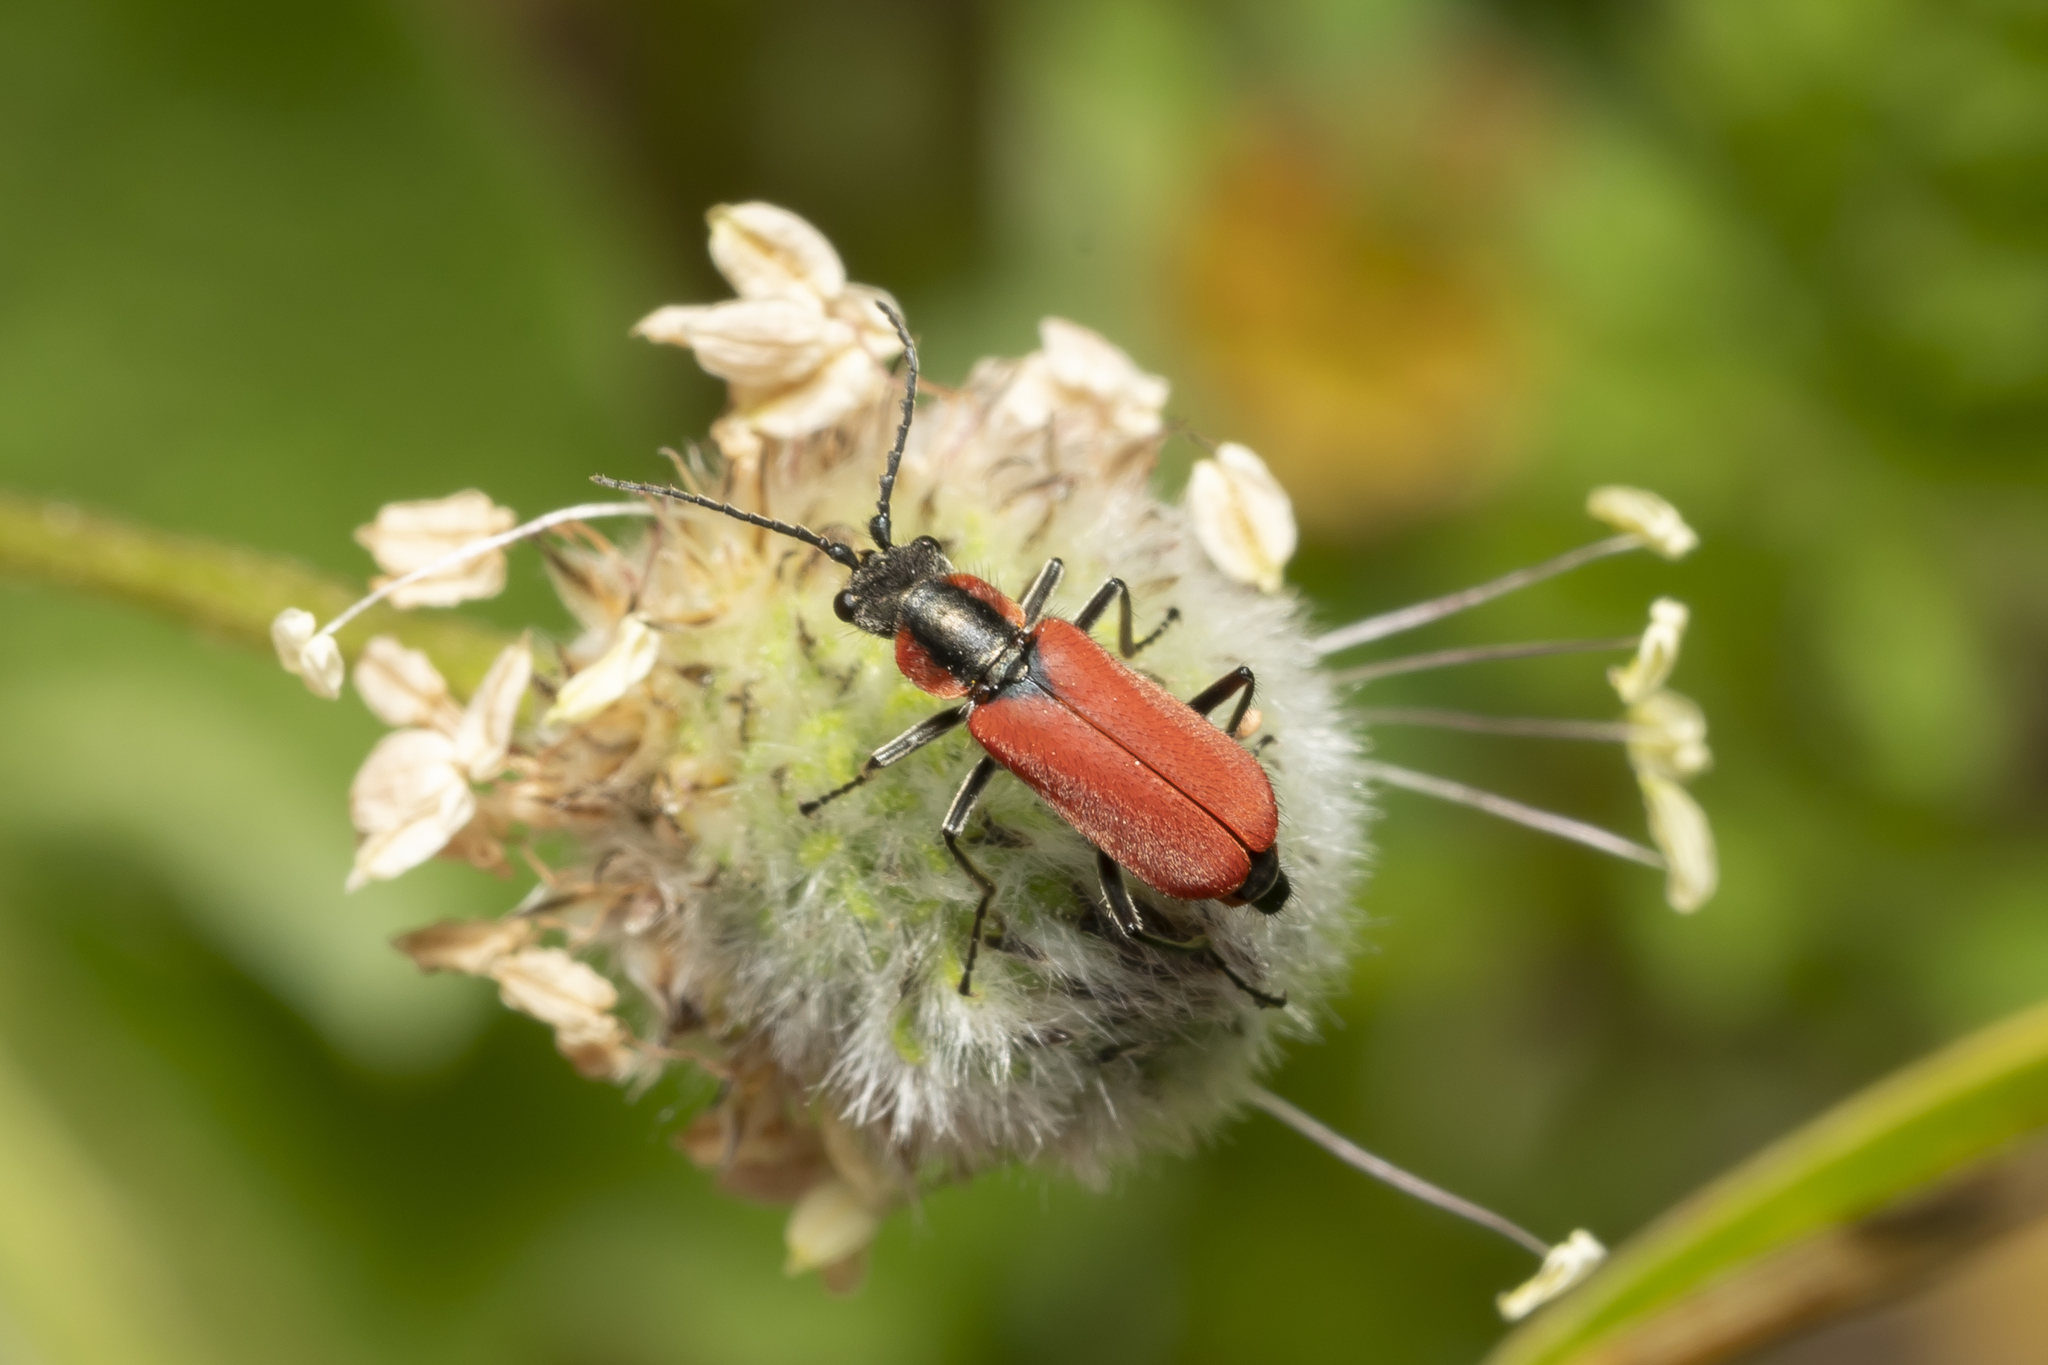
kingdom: Animalia
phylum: Arthropoda
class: Insecta
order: Coleoptera
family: Melyridae
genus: Malachius
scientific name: Malachius coccineus
